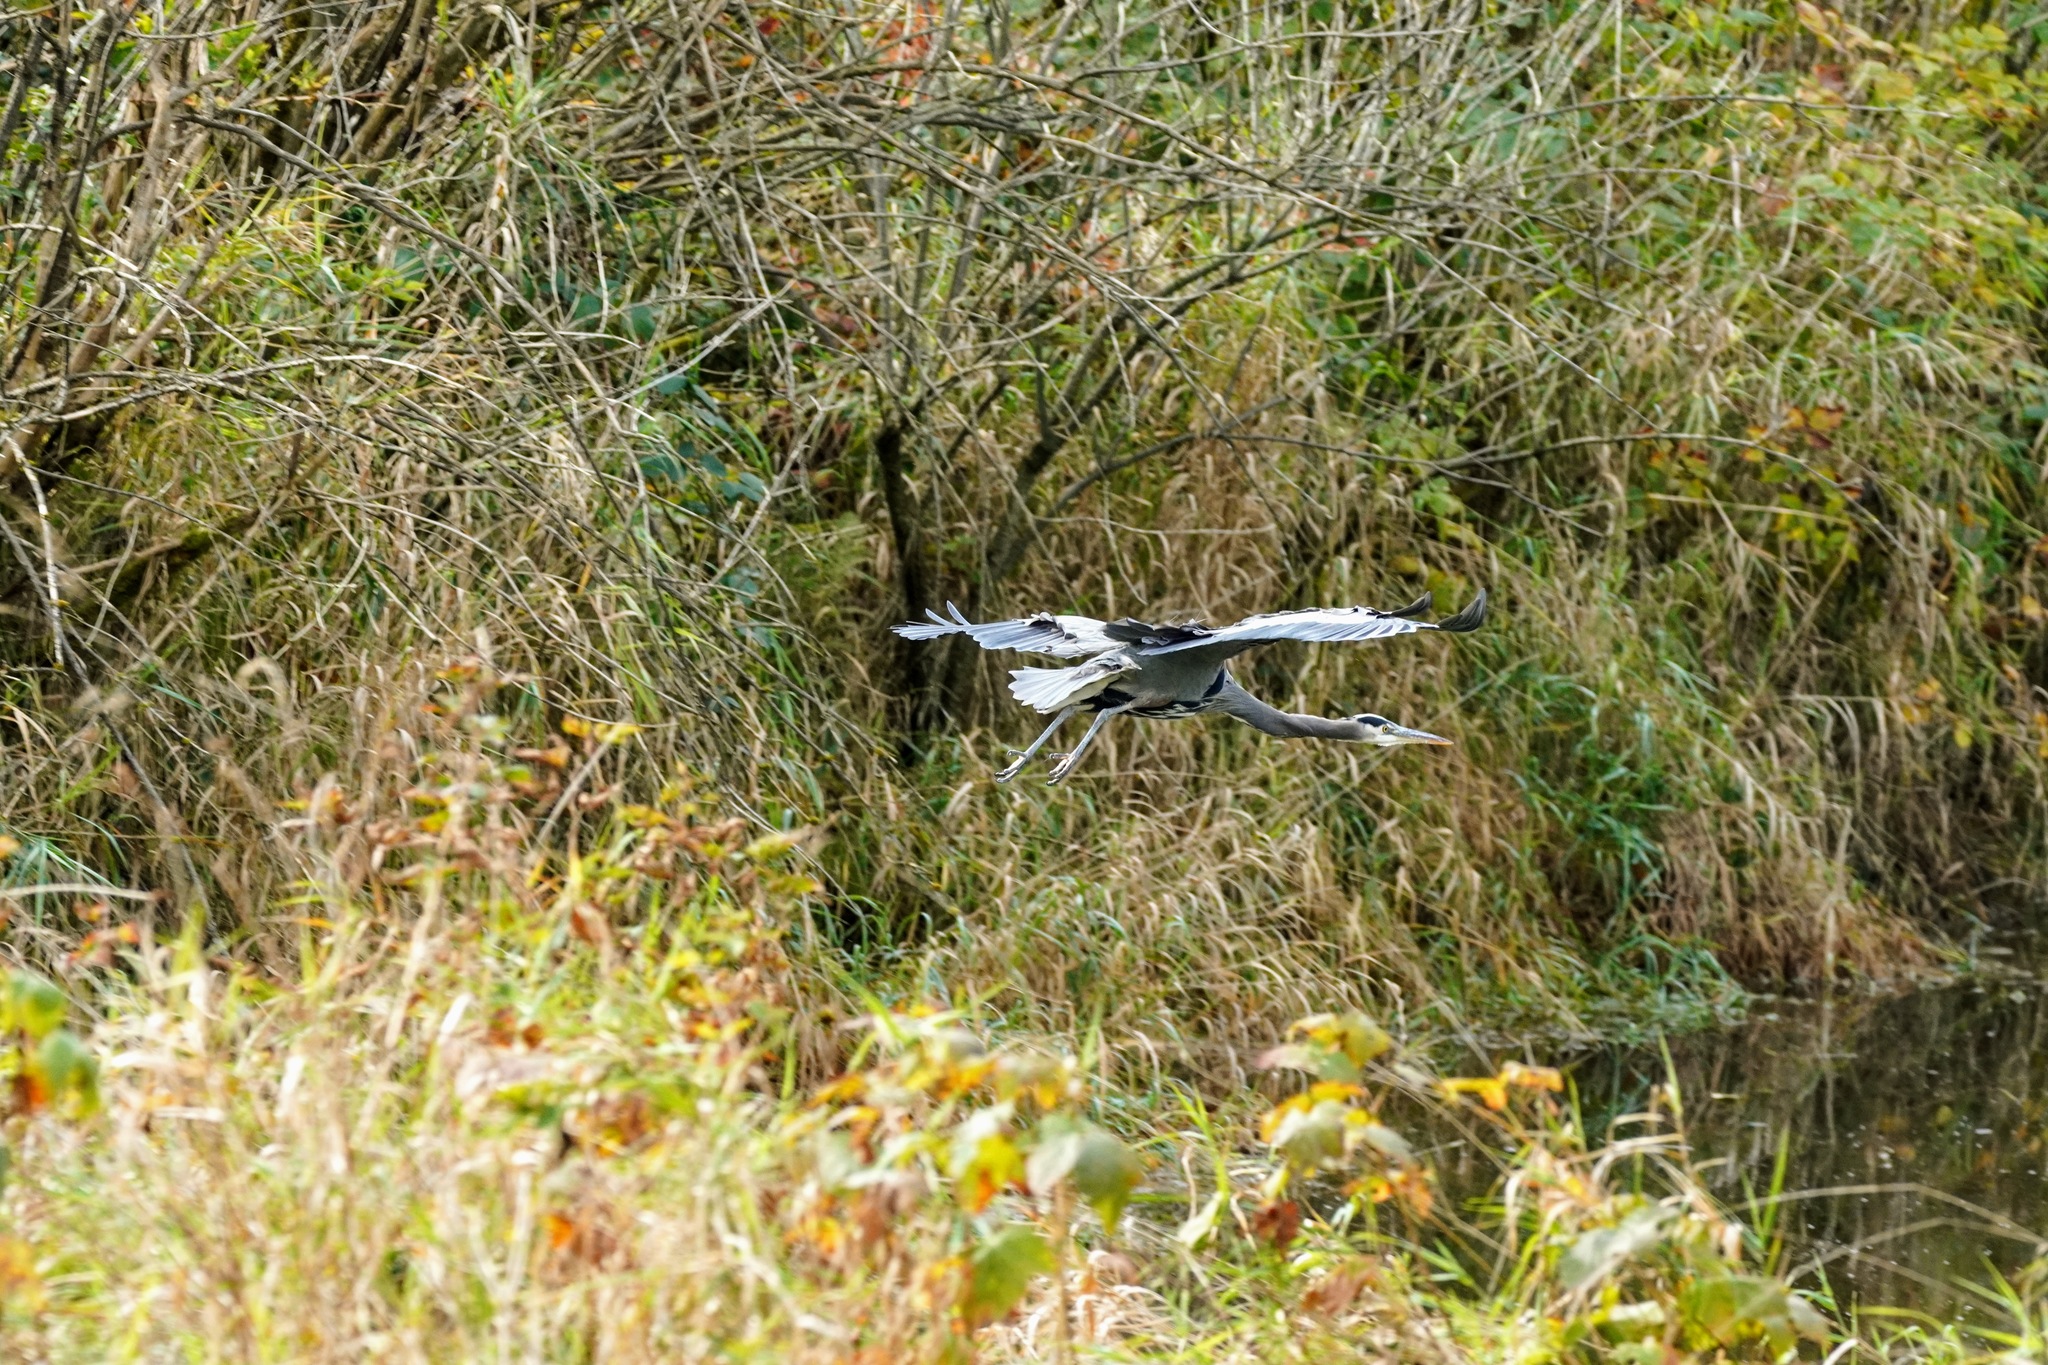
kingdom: Animalia
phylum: Chordata
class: Aves
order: Pelecaniformes
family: Ardeidae
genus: Ardea
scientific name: Ardea herodias
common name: Great blue heron
